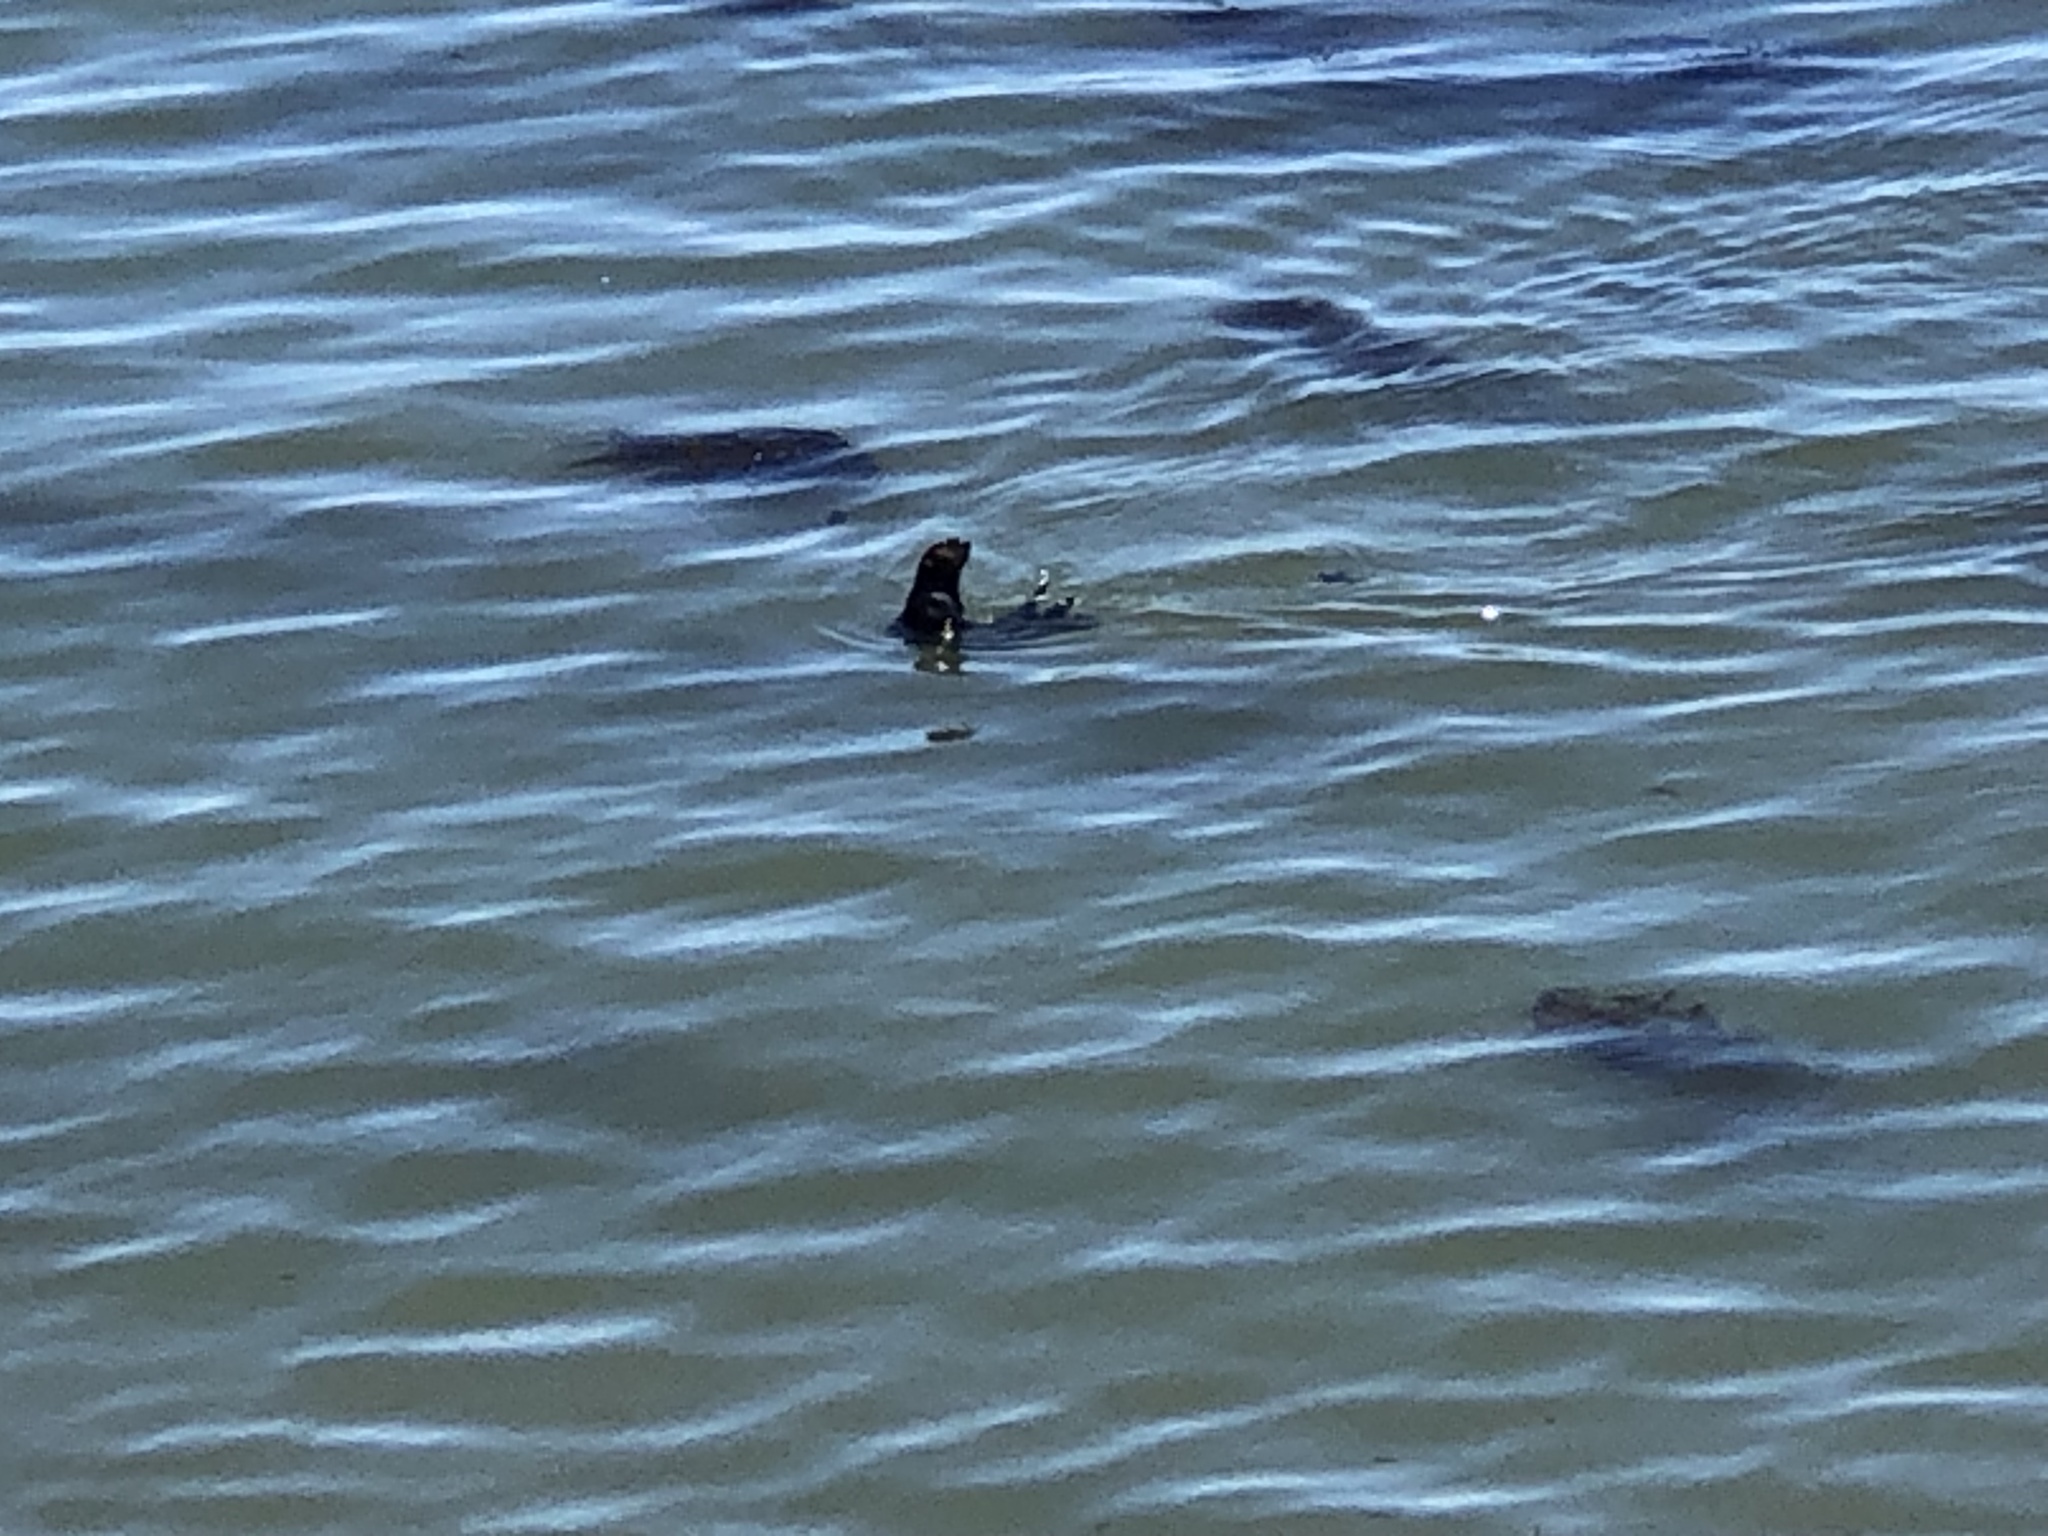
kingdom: Animalia
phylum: Chordata
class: Mammalia
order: Carnivora
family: Mustelidae
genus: Enhydra
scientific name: Enhydra lutris
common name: Sea otter
